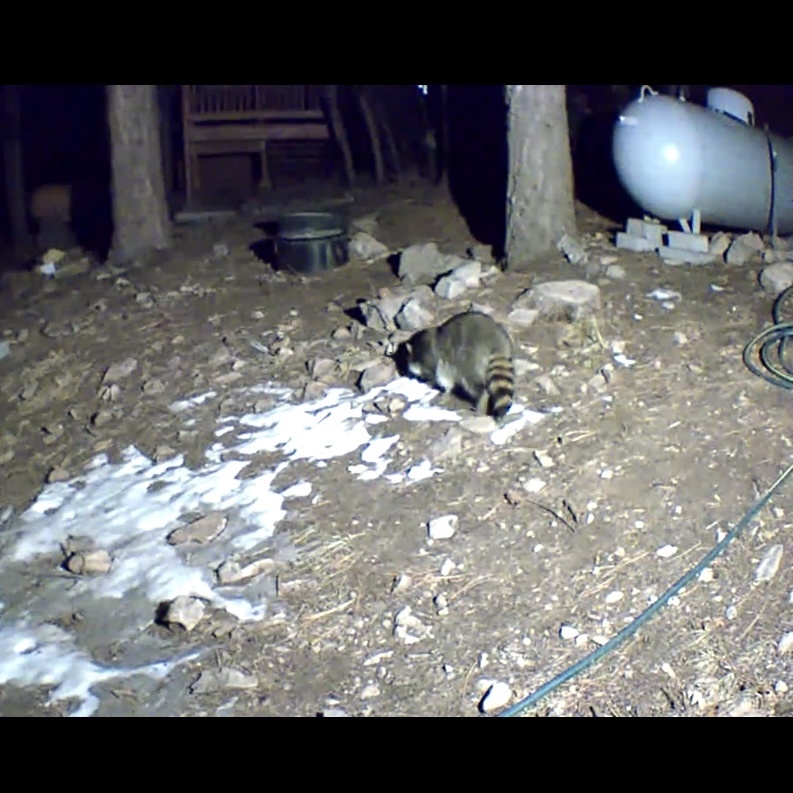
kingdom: Animalia
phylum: Chordata
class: Mammalia
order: Carnivora
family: Procyonidae
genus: Procyon
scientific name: Procyon lotor
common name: Raccoon
